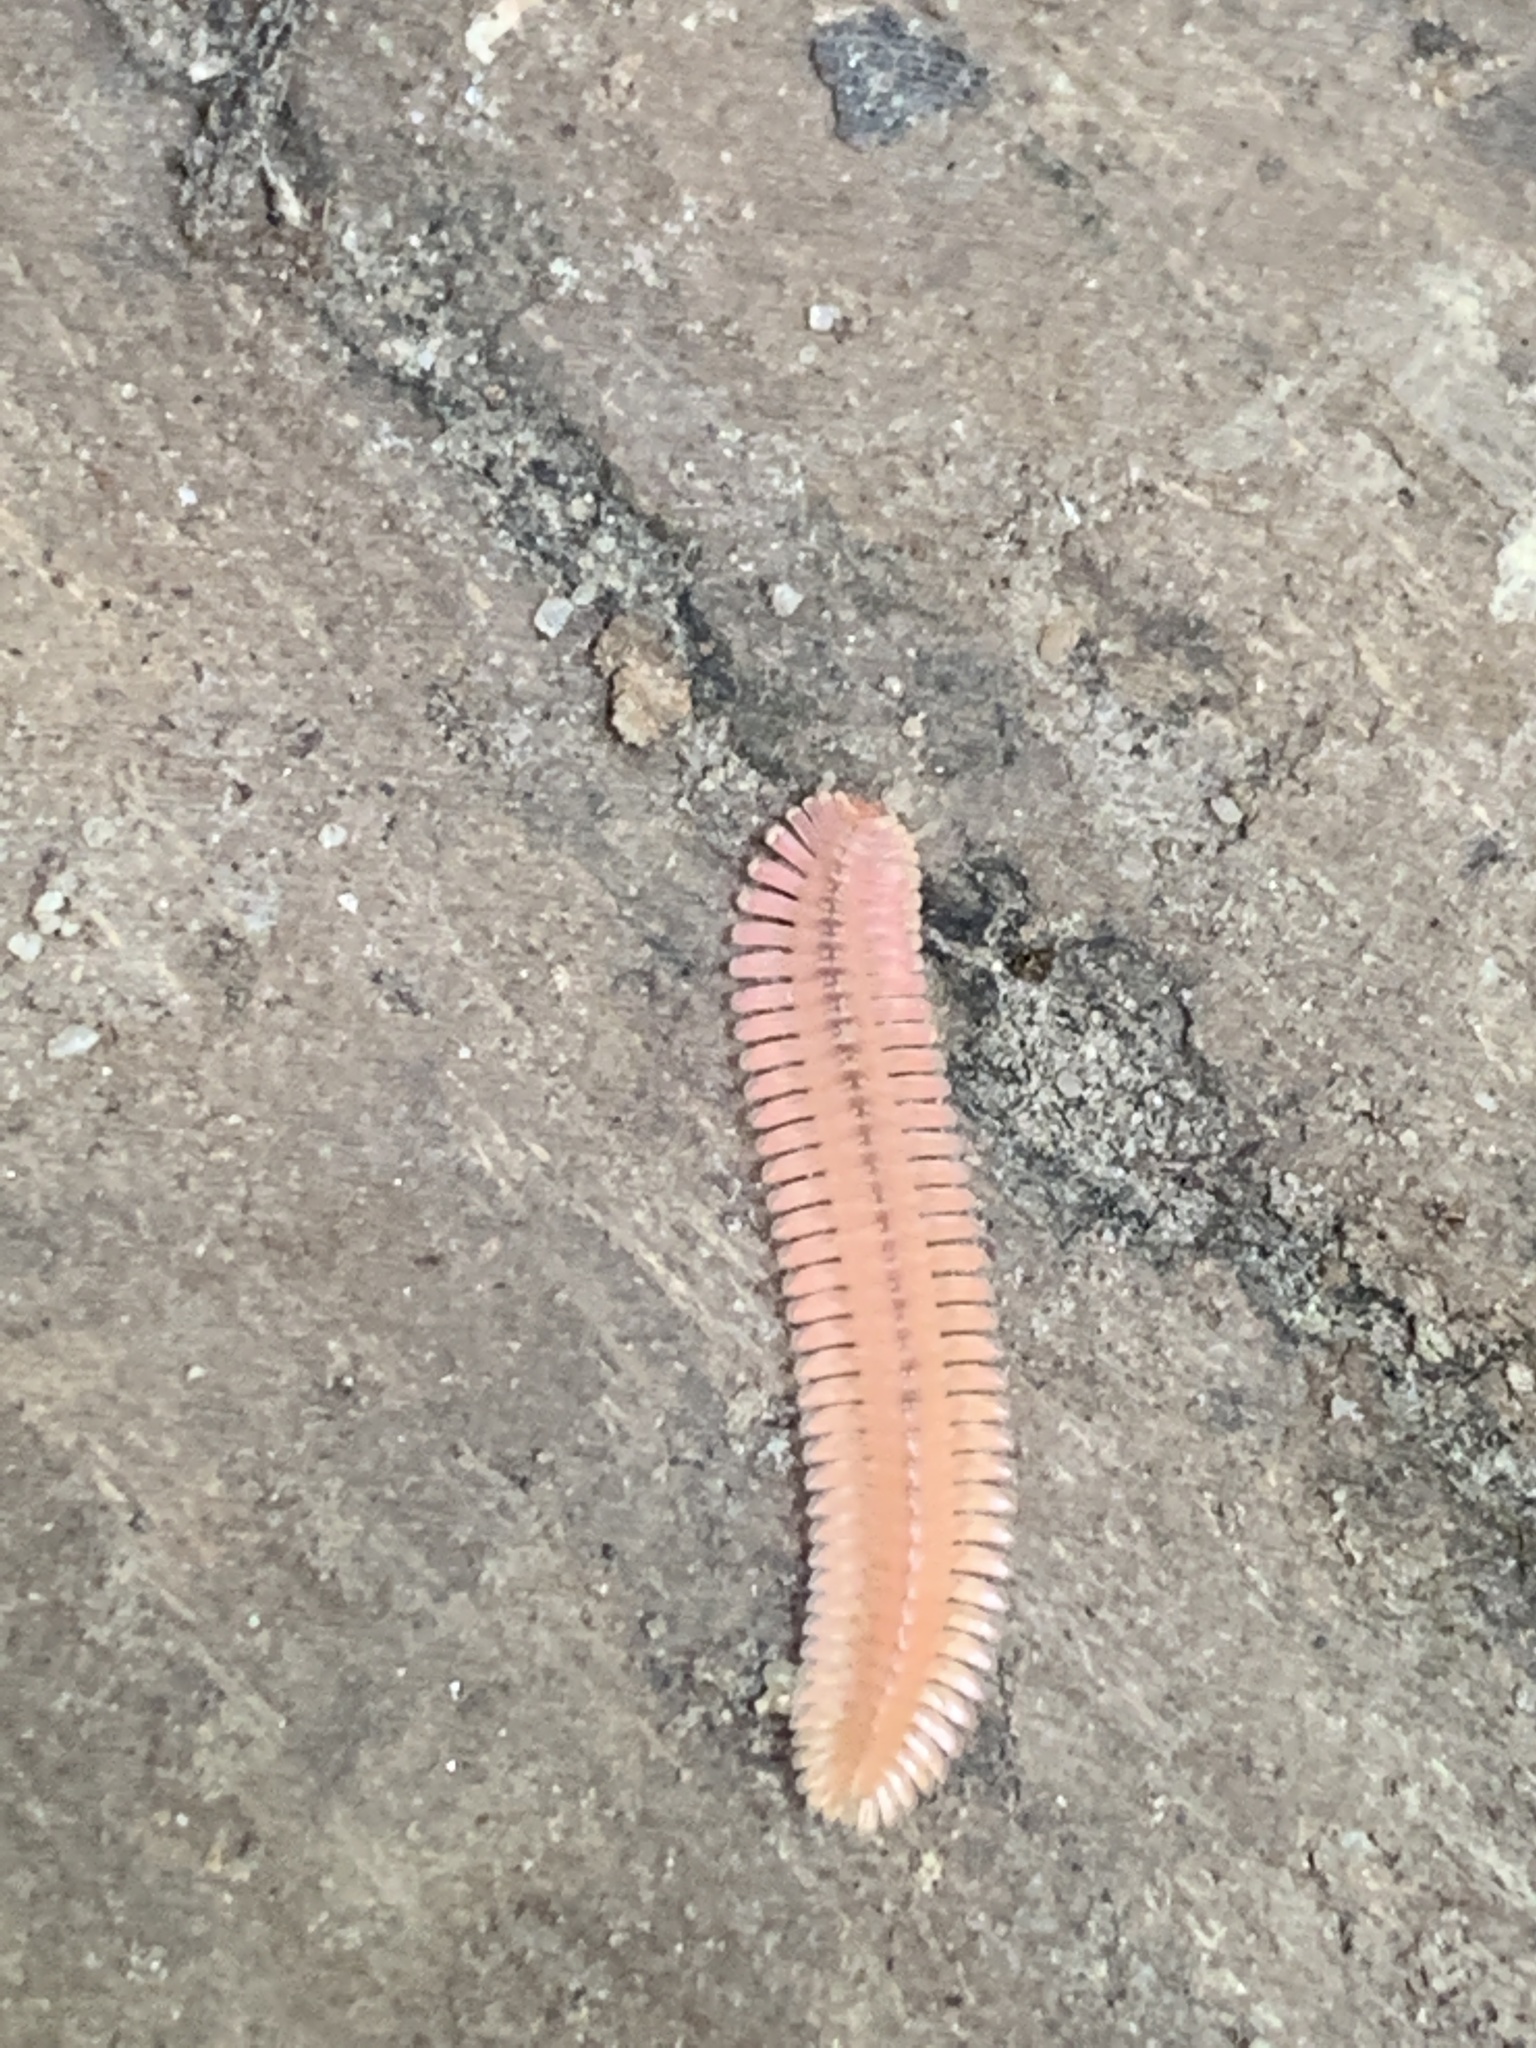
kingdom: Animalia
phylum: Arthropoda
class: Diplopoda
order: Platydesmida
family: Andrognathidae
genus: Brachycybe
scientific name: Brachycybe lecontii
